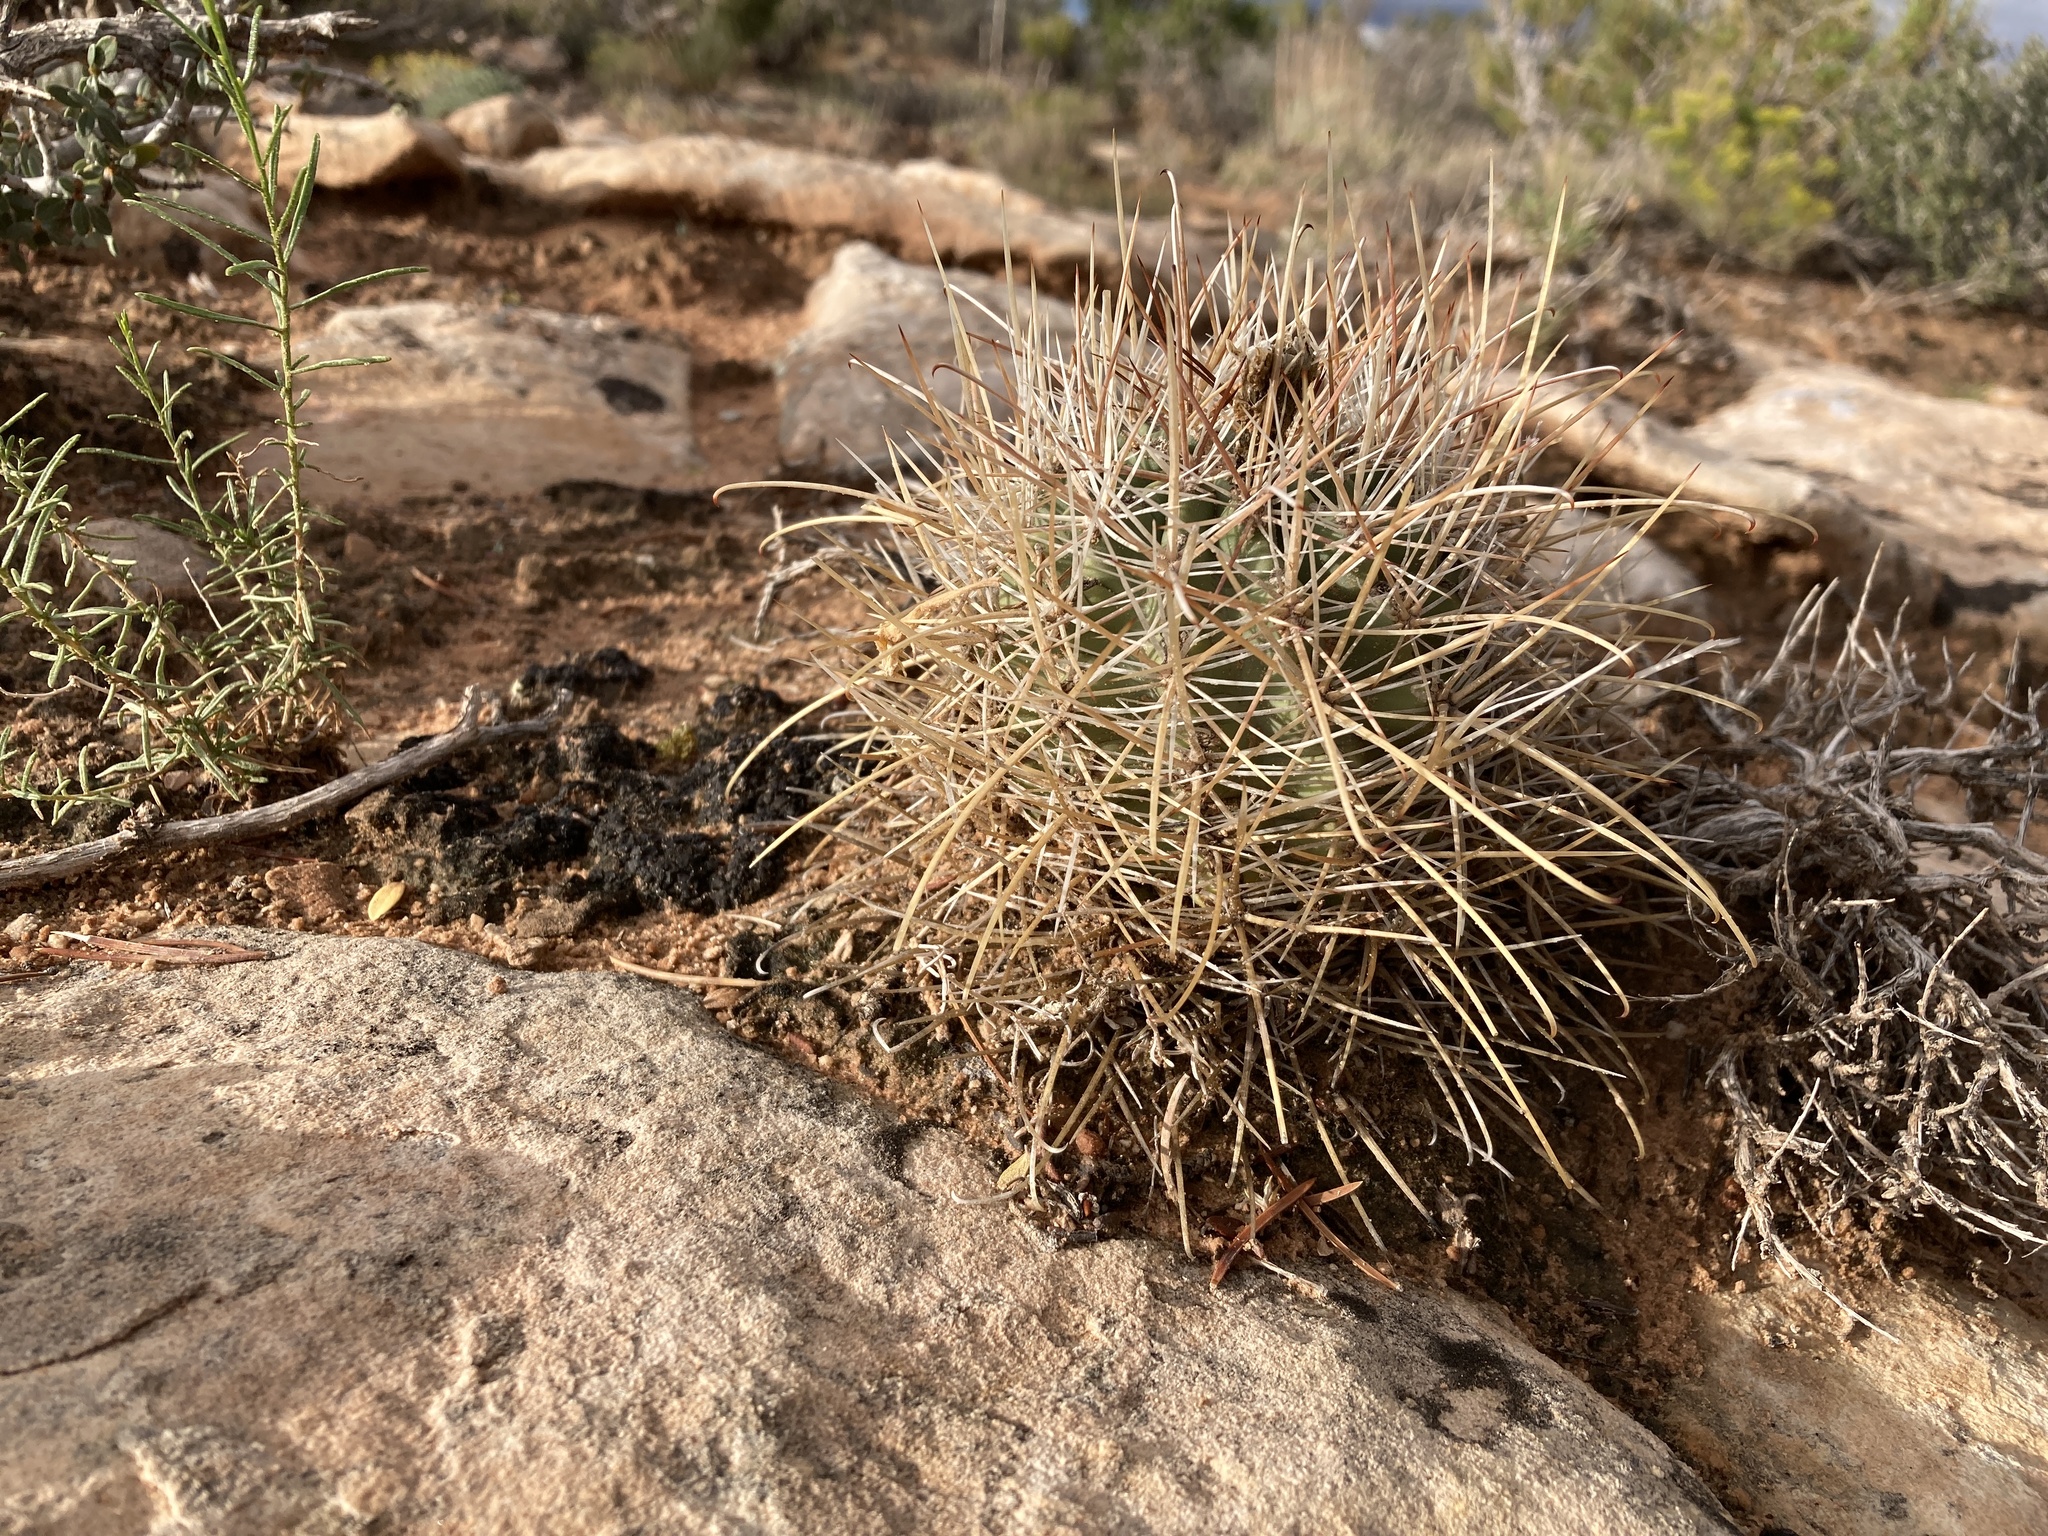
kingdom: Plantae
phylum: Tracheophyta
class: Magnoliopsida
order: Caryophyllales
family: Cactaceae
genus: Sclerocactus
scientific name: Sclerocactus parviflorus
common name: Small-flower fishhook cactus
